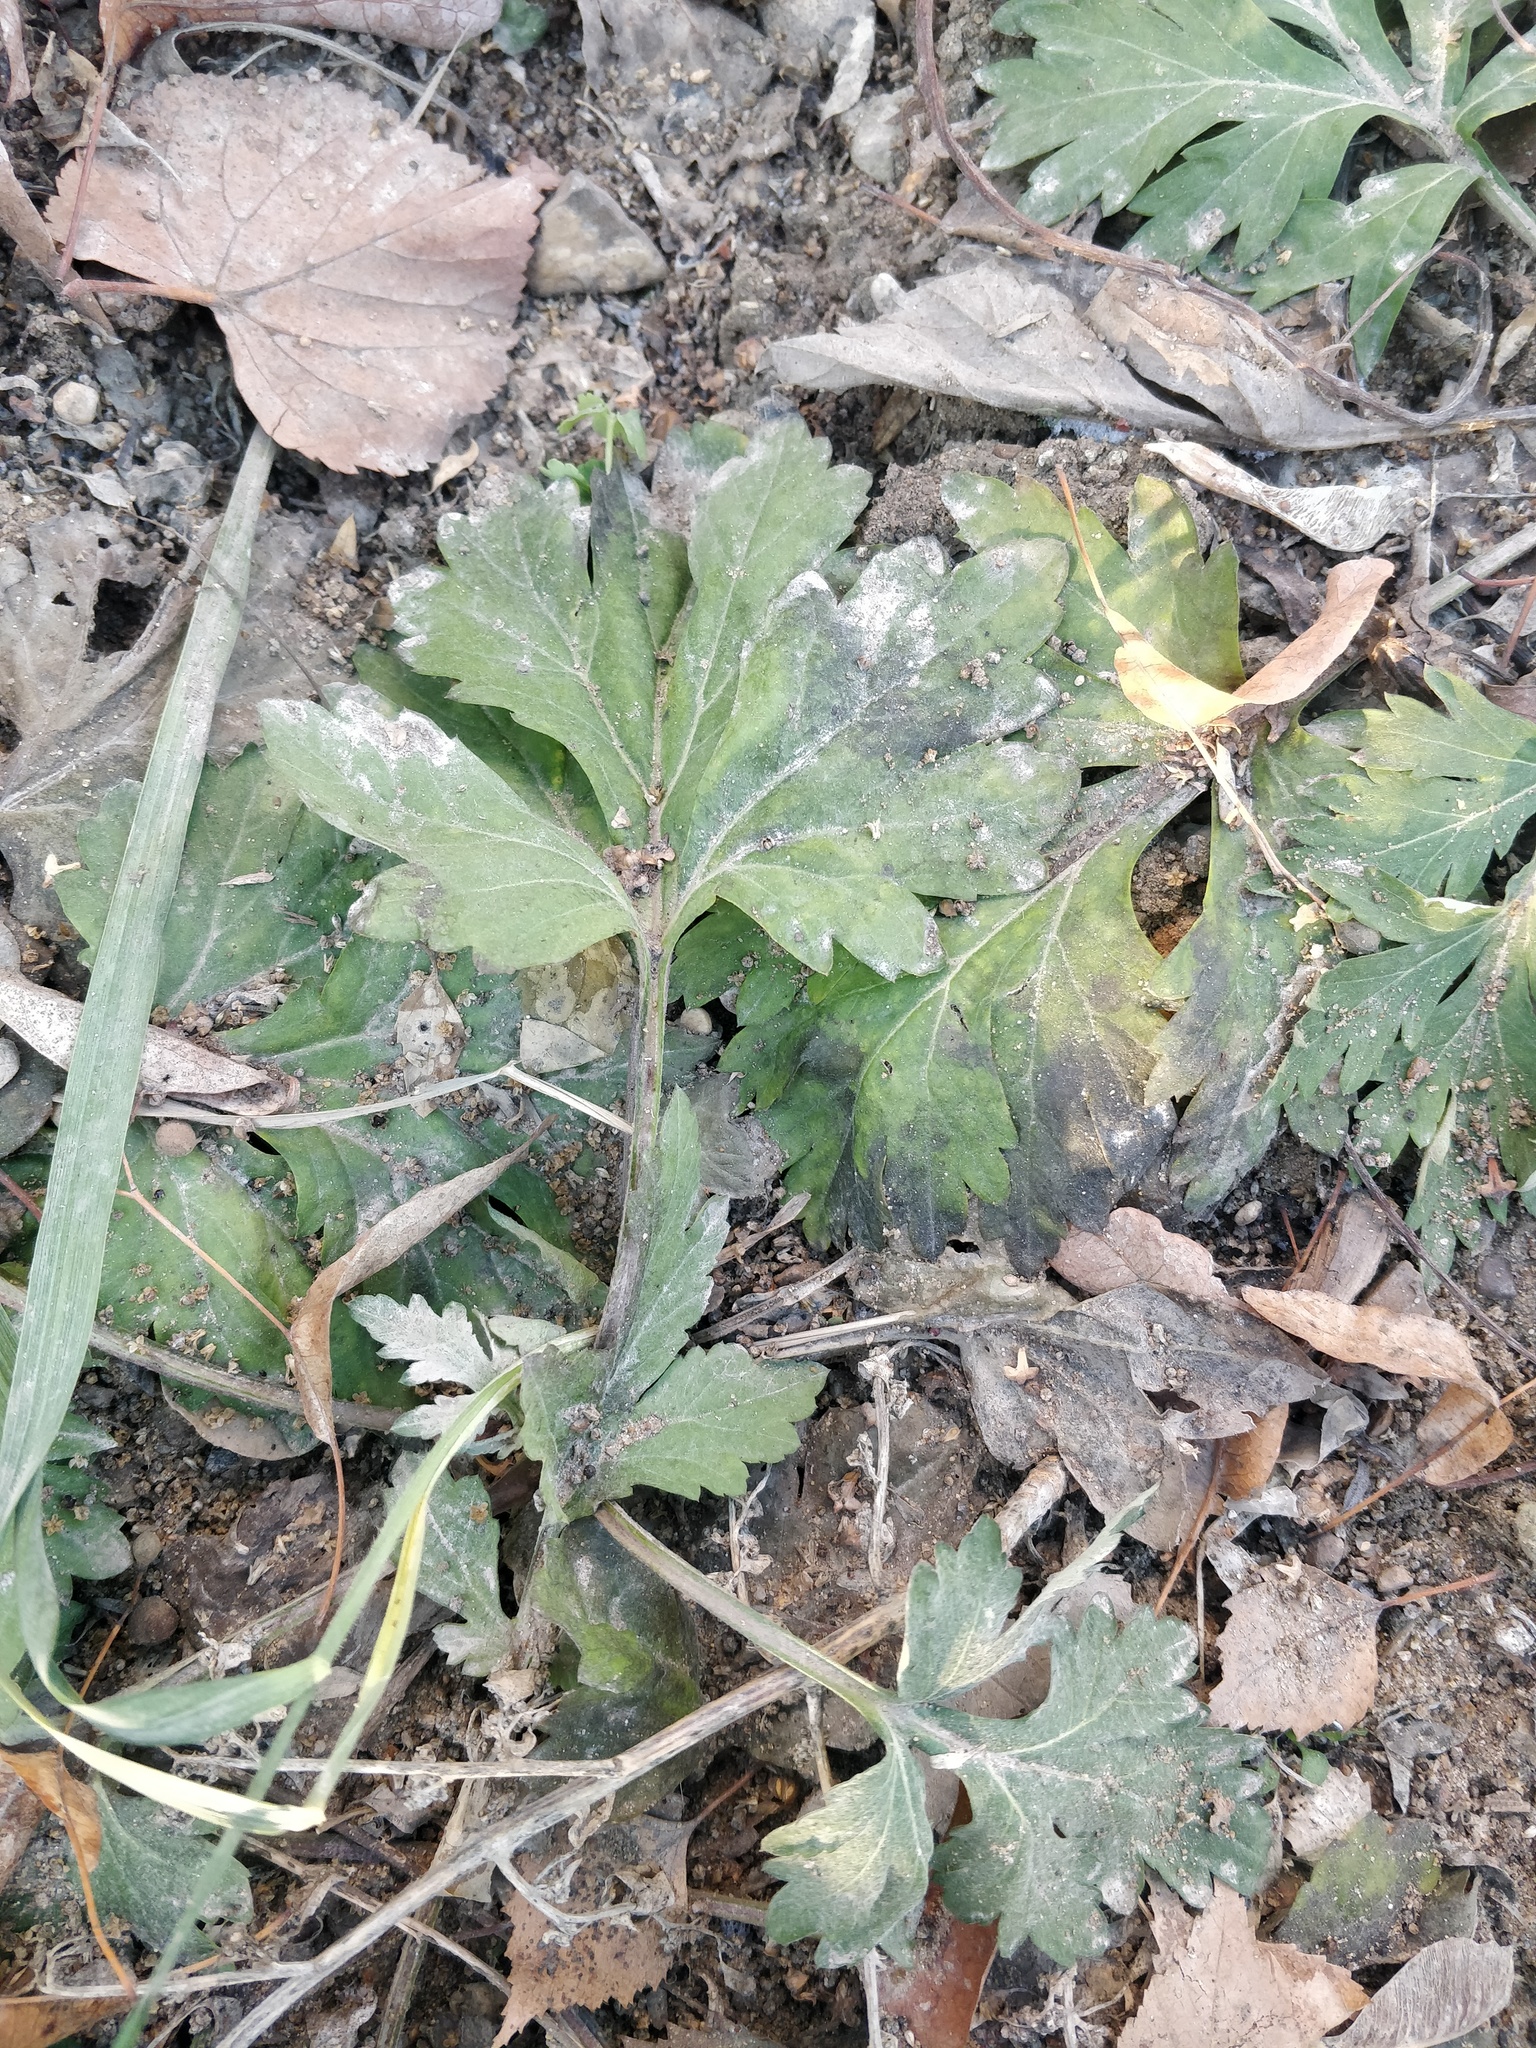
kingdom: Plantae
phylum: Tracheophyta
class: Magnoliopsida
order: Asterales
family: Asteraceae
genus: Artemisia
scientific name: Artemisia vulgaris
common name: Mugwort
